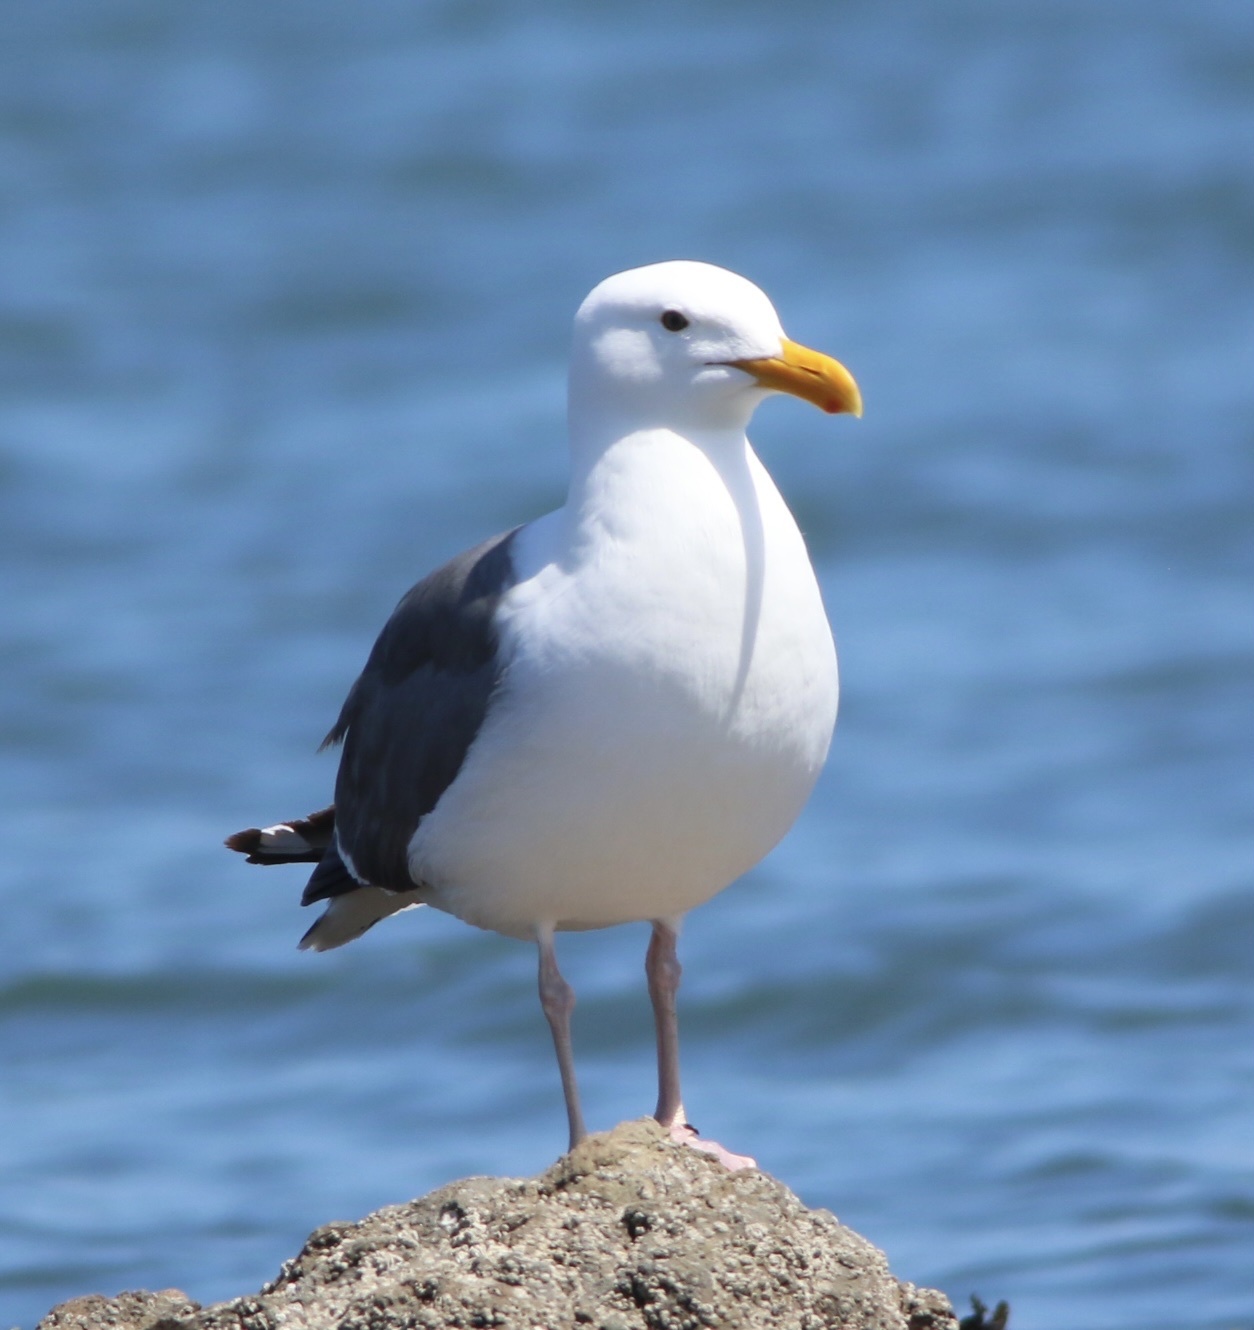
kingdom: Animalia
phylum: Chordata
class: Aves
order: Charadriiformes
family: Laridae
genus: Larus
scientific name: Larus occidentalis
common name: Western gull
